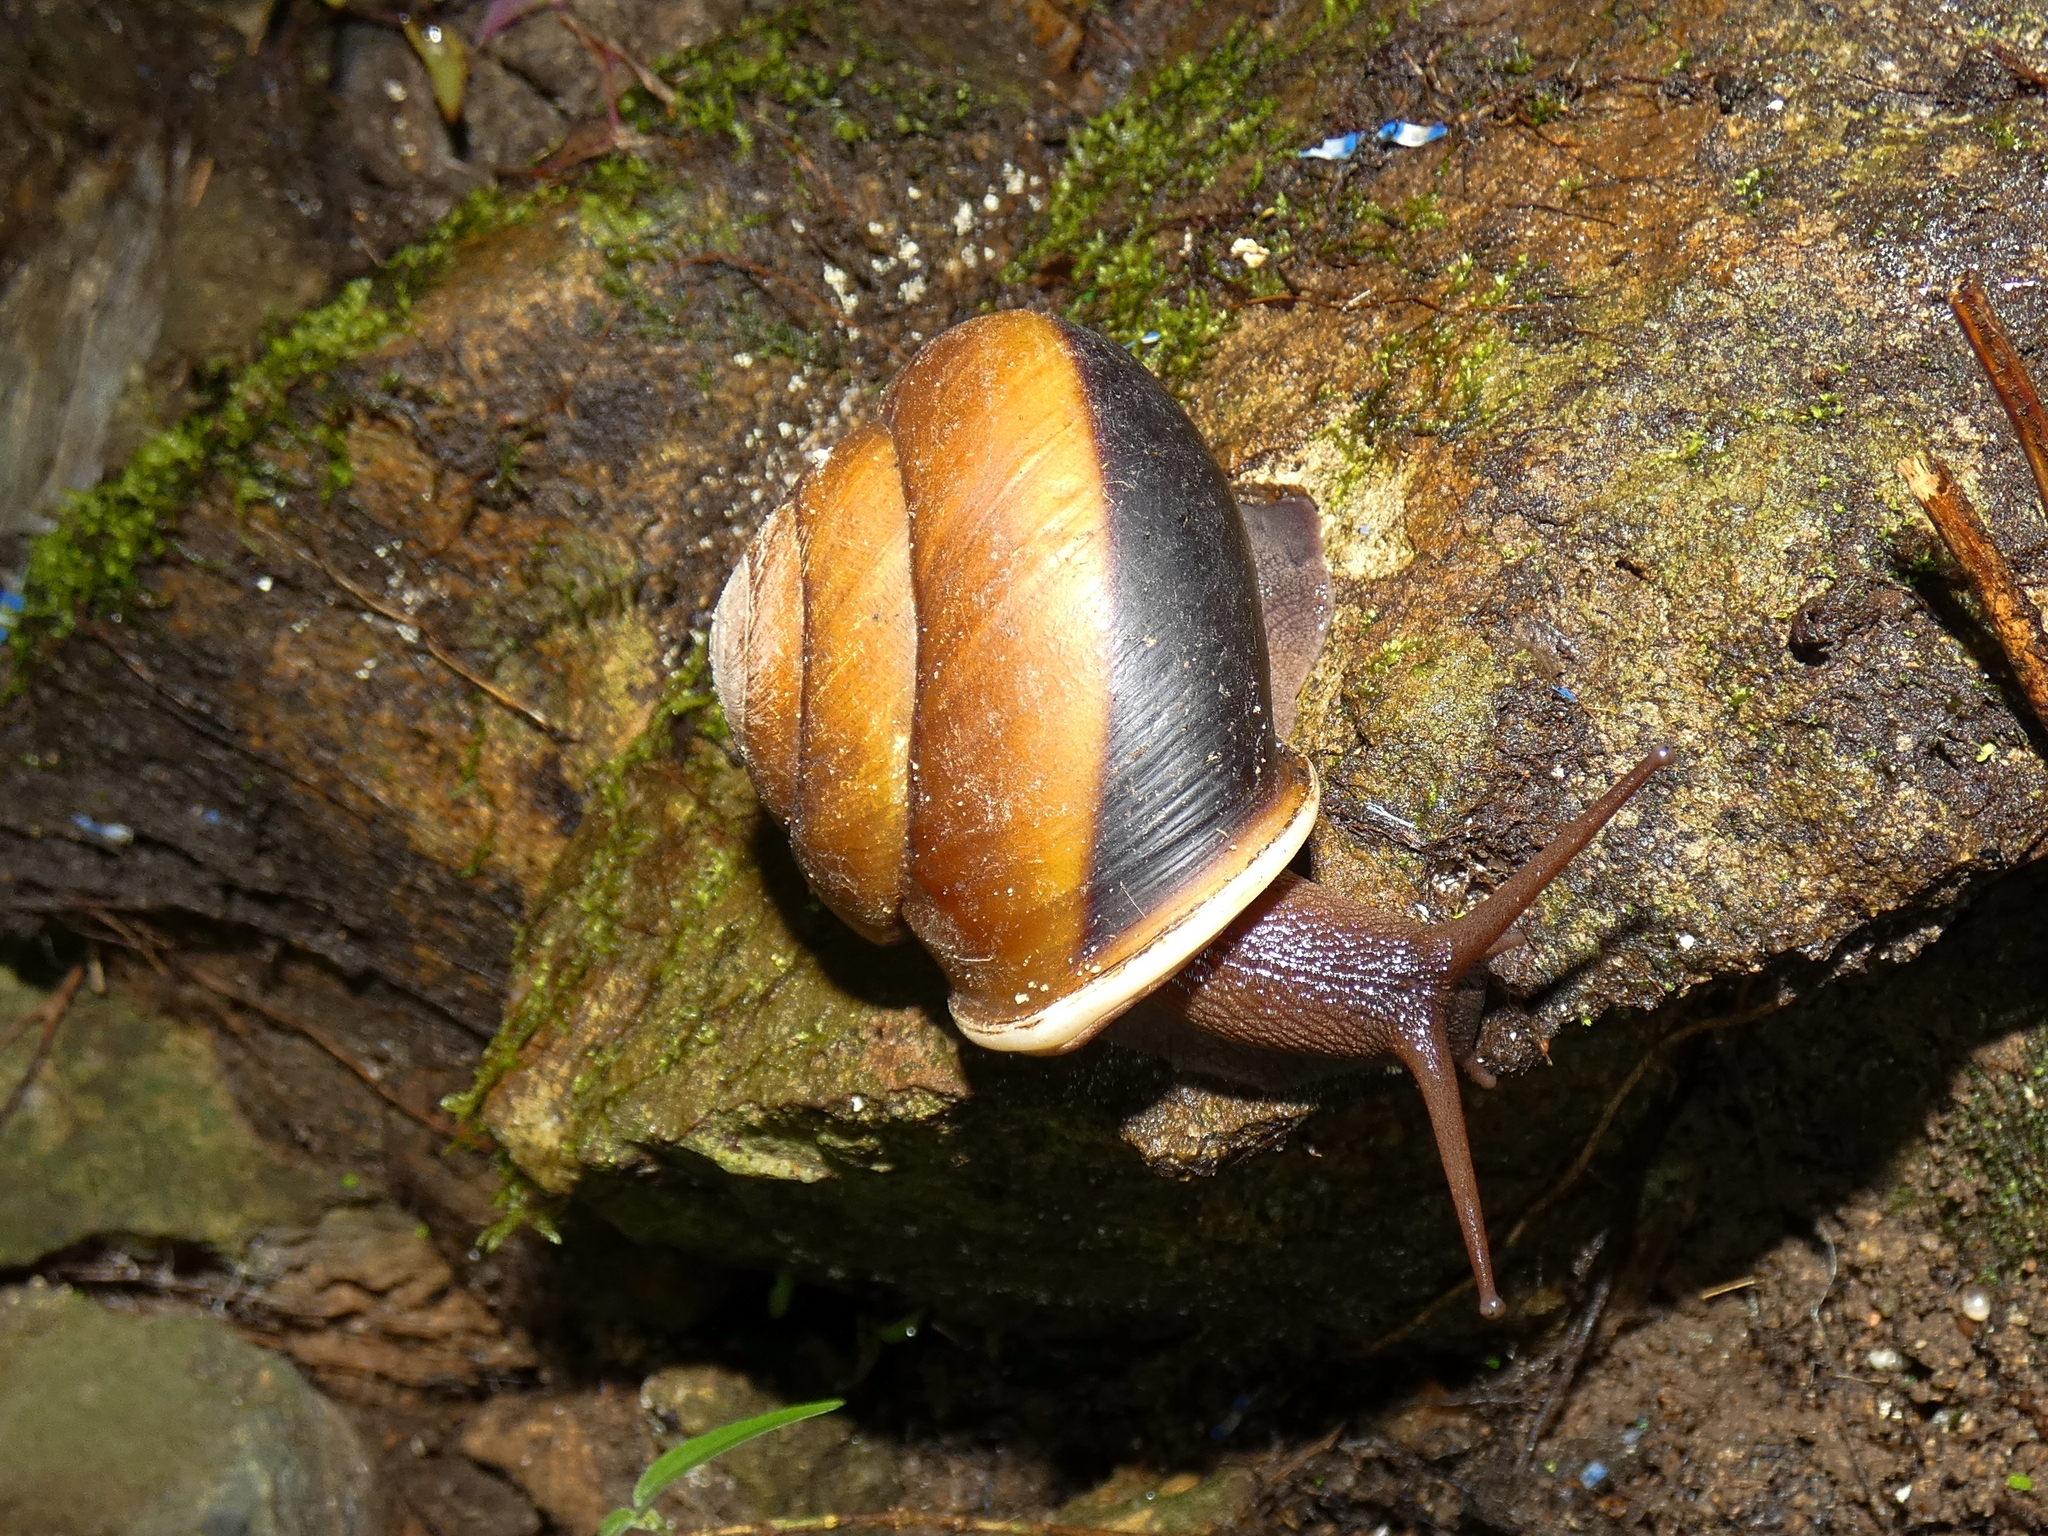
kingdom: Animalia
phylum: Mollusca
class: Gastropoda
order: Stylommatophora
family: Camaenidae
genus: Hadra
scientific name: Hadra bipartita
